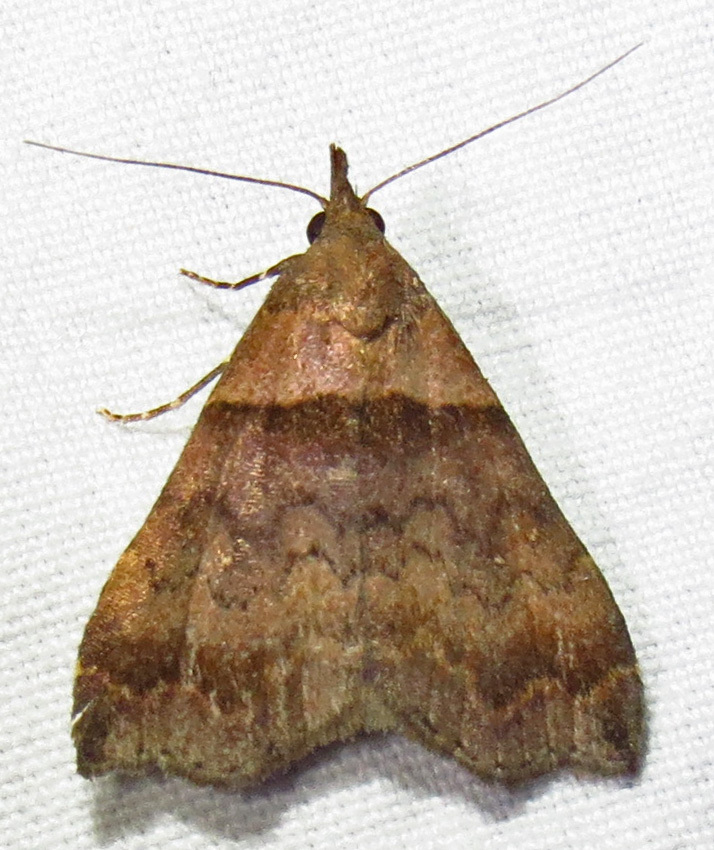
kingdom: Animalia
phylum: Arthropoda
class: Insecta
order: Lepidoptera
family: Erebidae
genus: Lascoria
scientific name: Lascoria ambigualis
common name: Ambiguous moth
